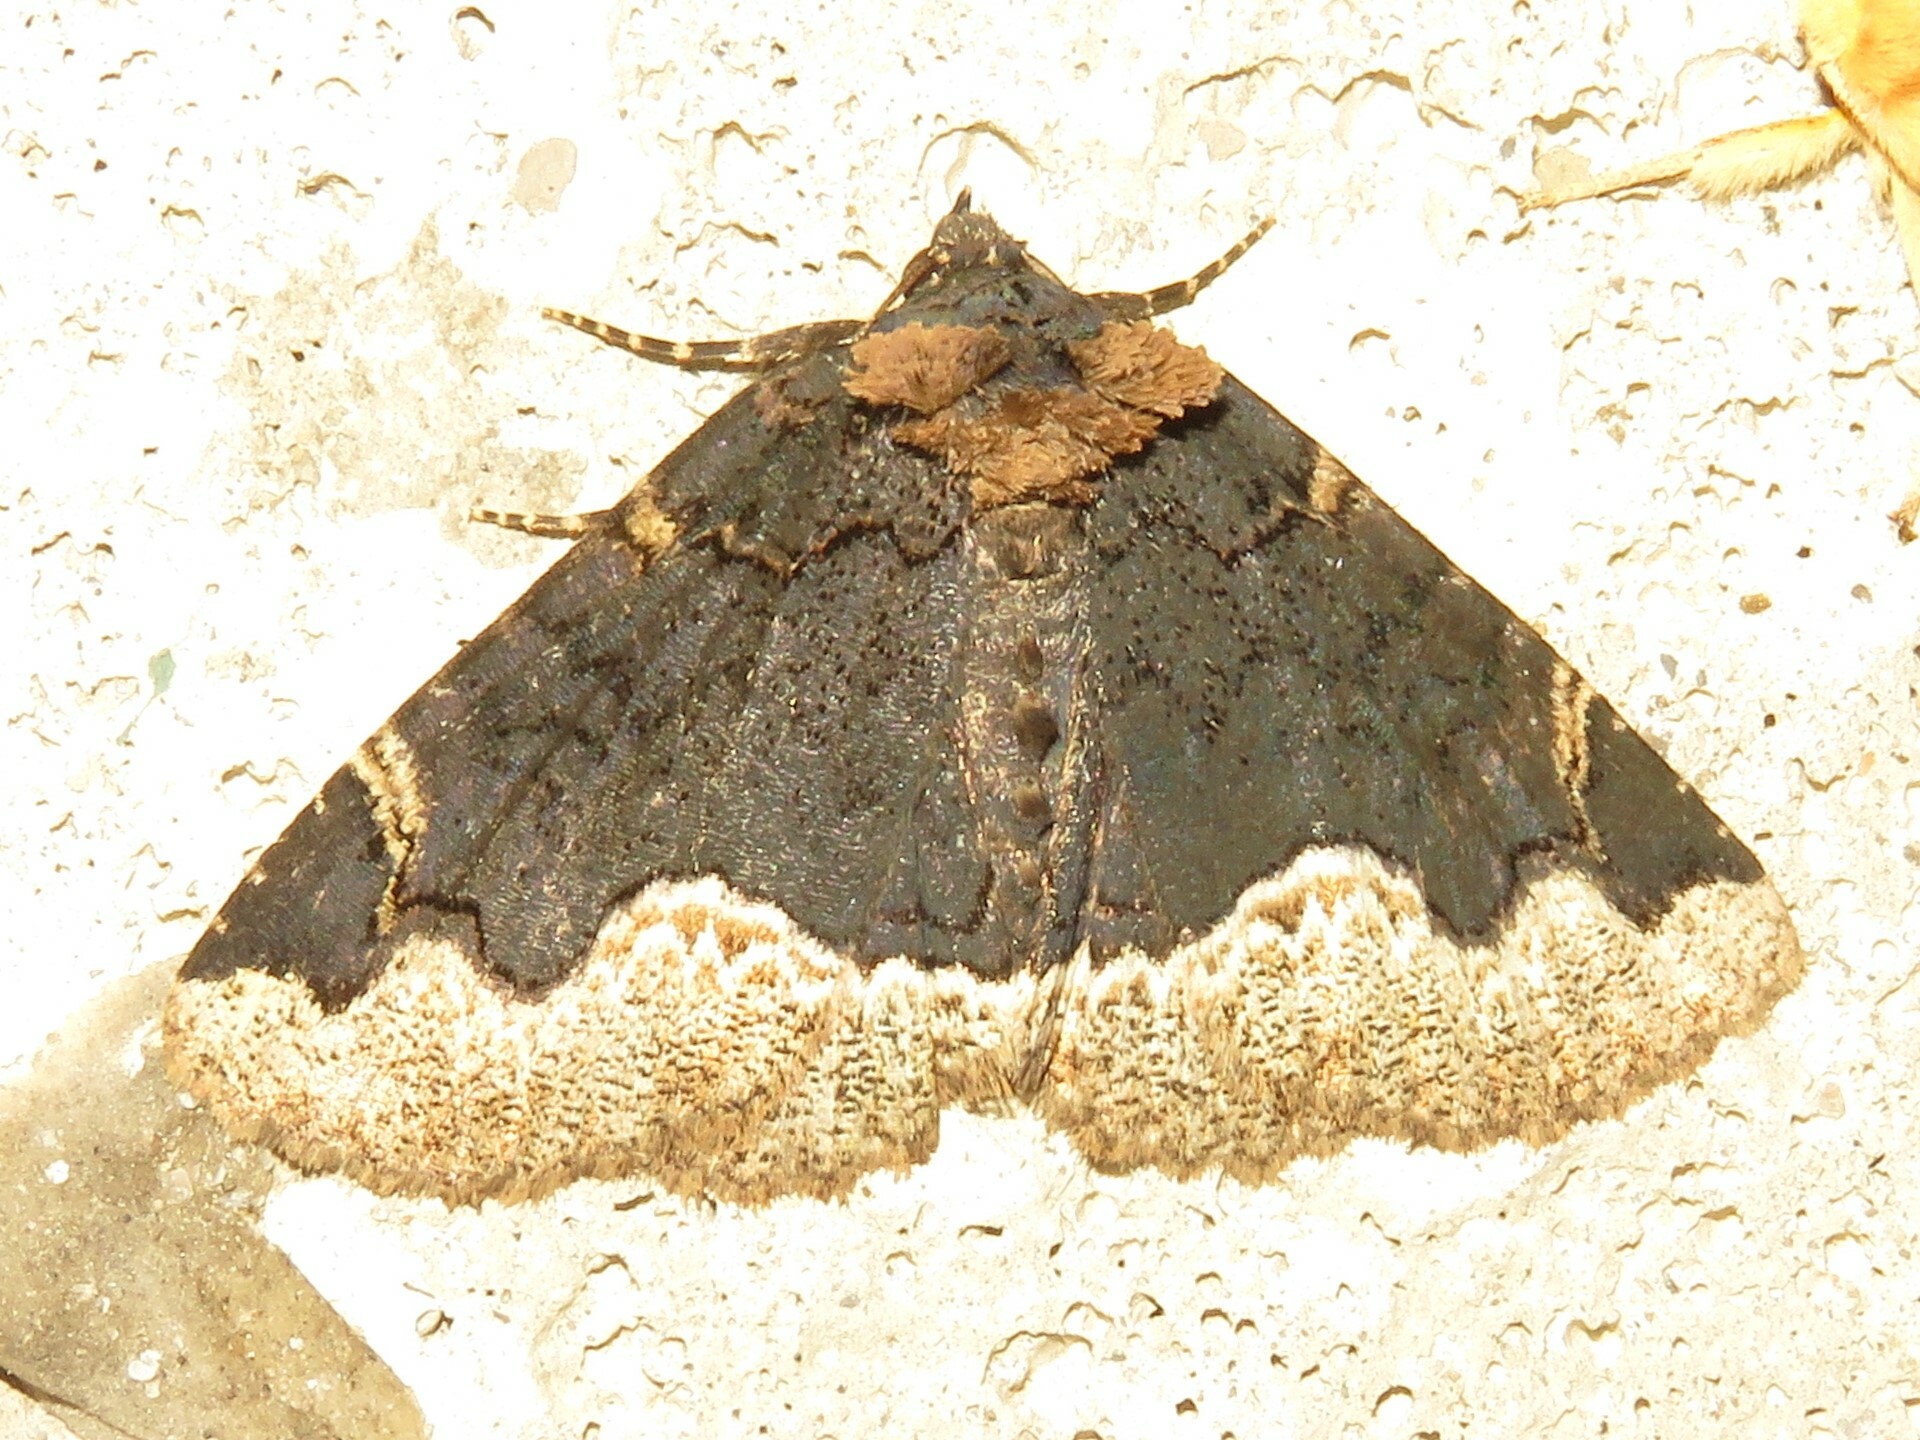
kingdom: Animalia
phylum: Arthropoda
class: Insecta
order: Lepidoptera
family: Erebidae
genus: Zale
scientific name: Zale horrida
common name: Horrid zale moth
